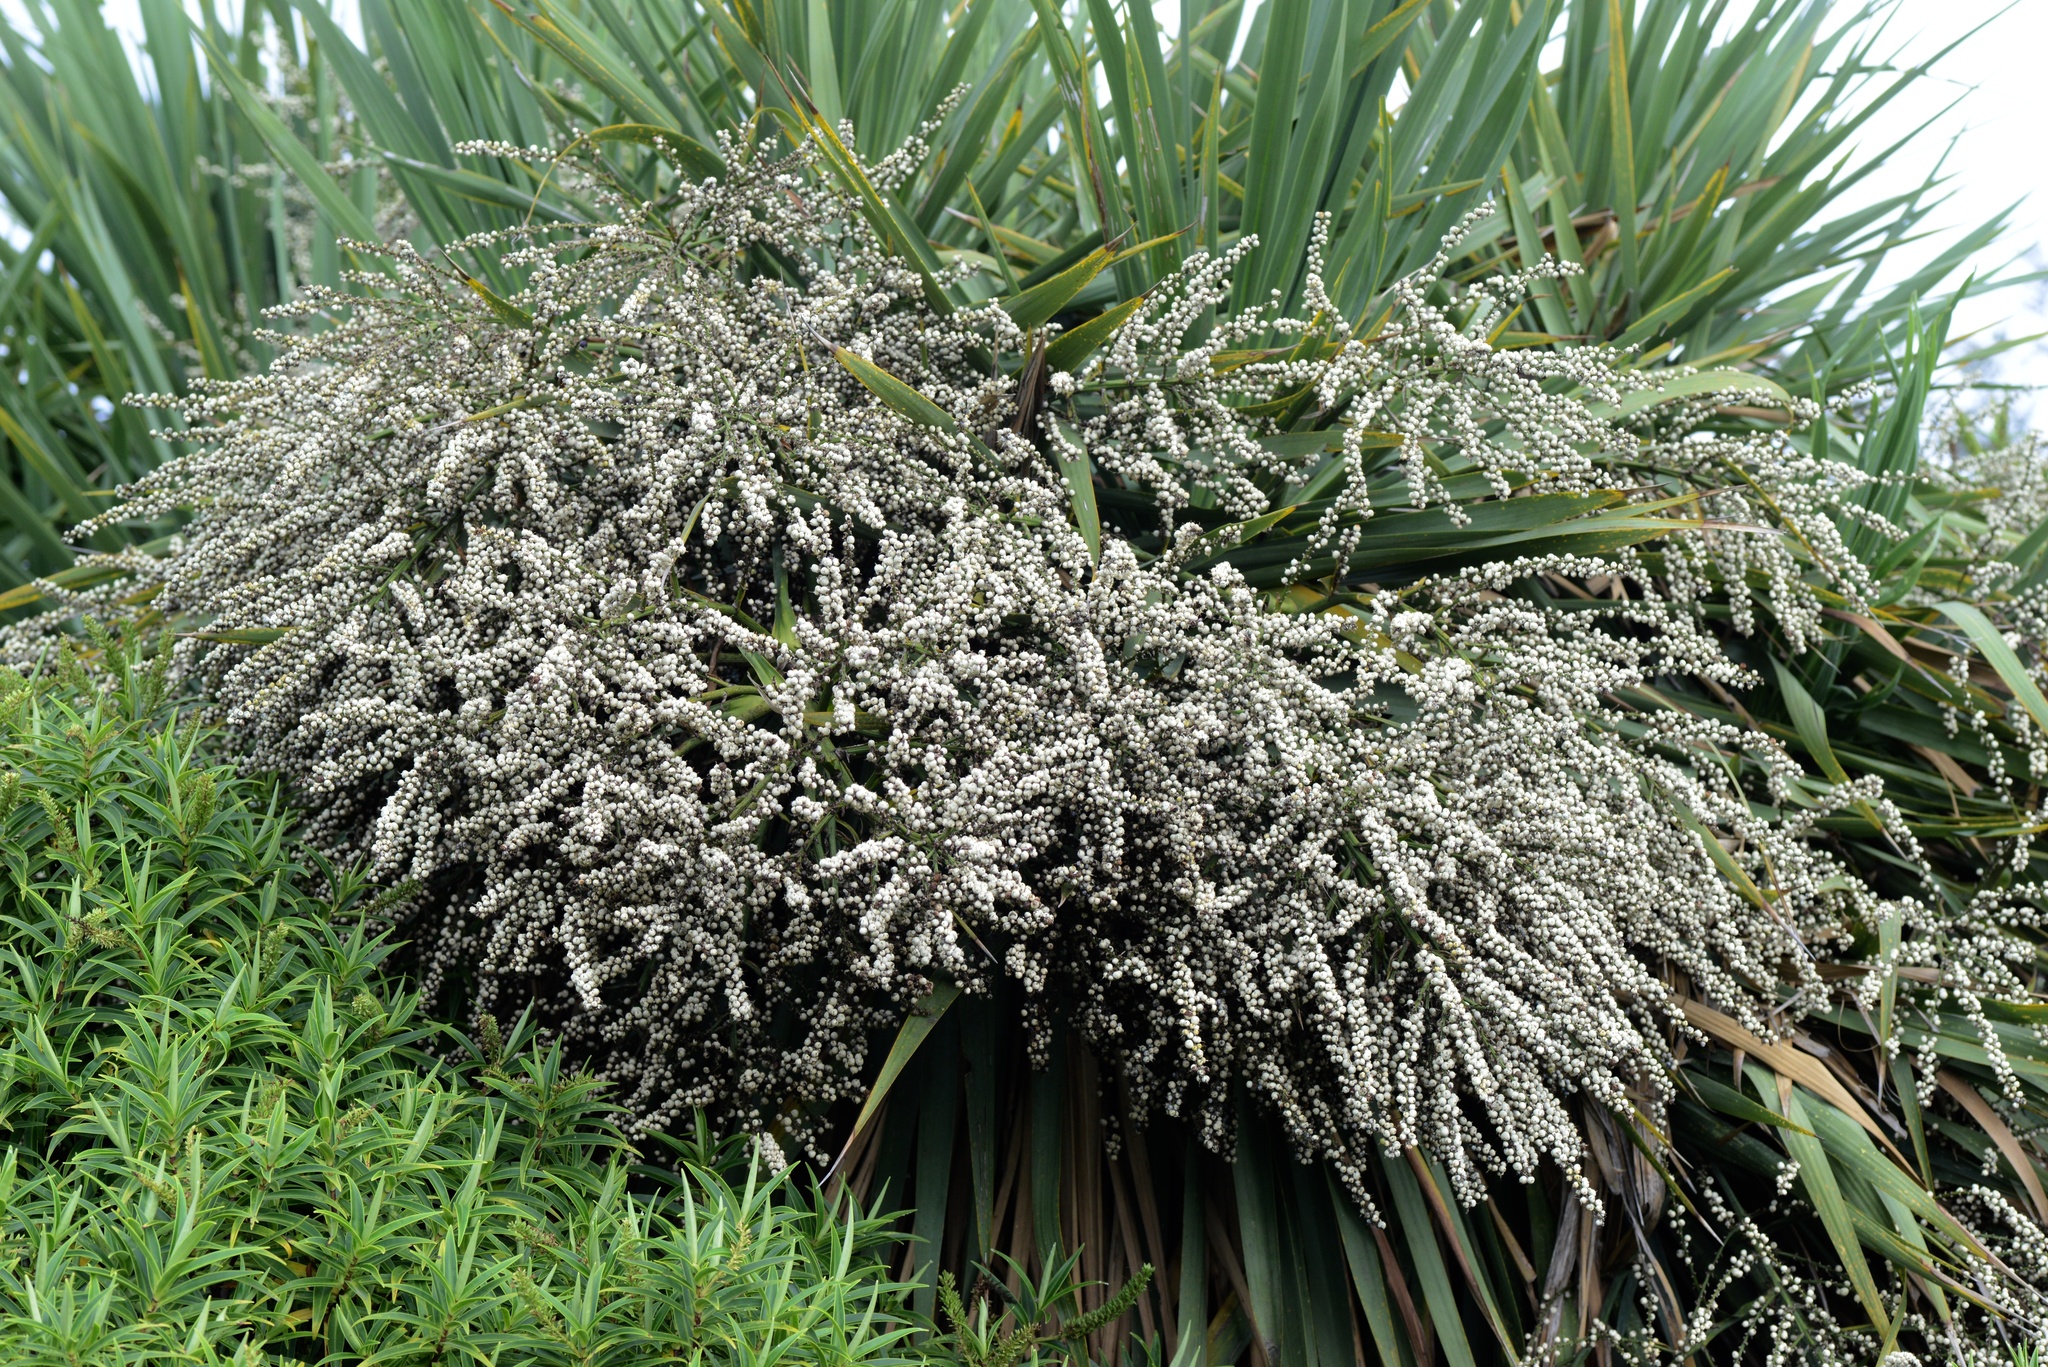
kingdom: Plantae
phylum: Tracheophyta
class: Liliopsida
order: Asparagales
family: Asparagaceae
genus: Cordyline
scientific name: Cordyline australis
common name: Cabbage-palm
